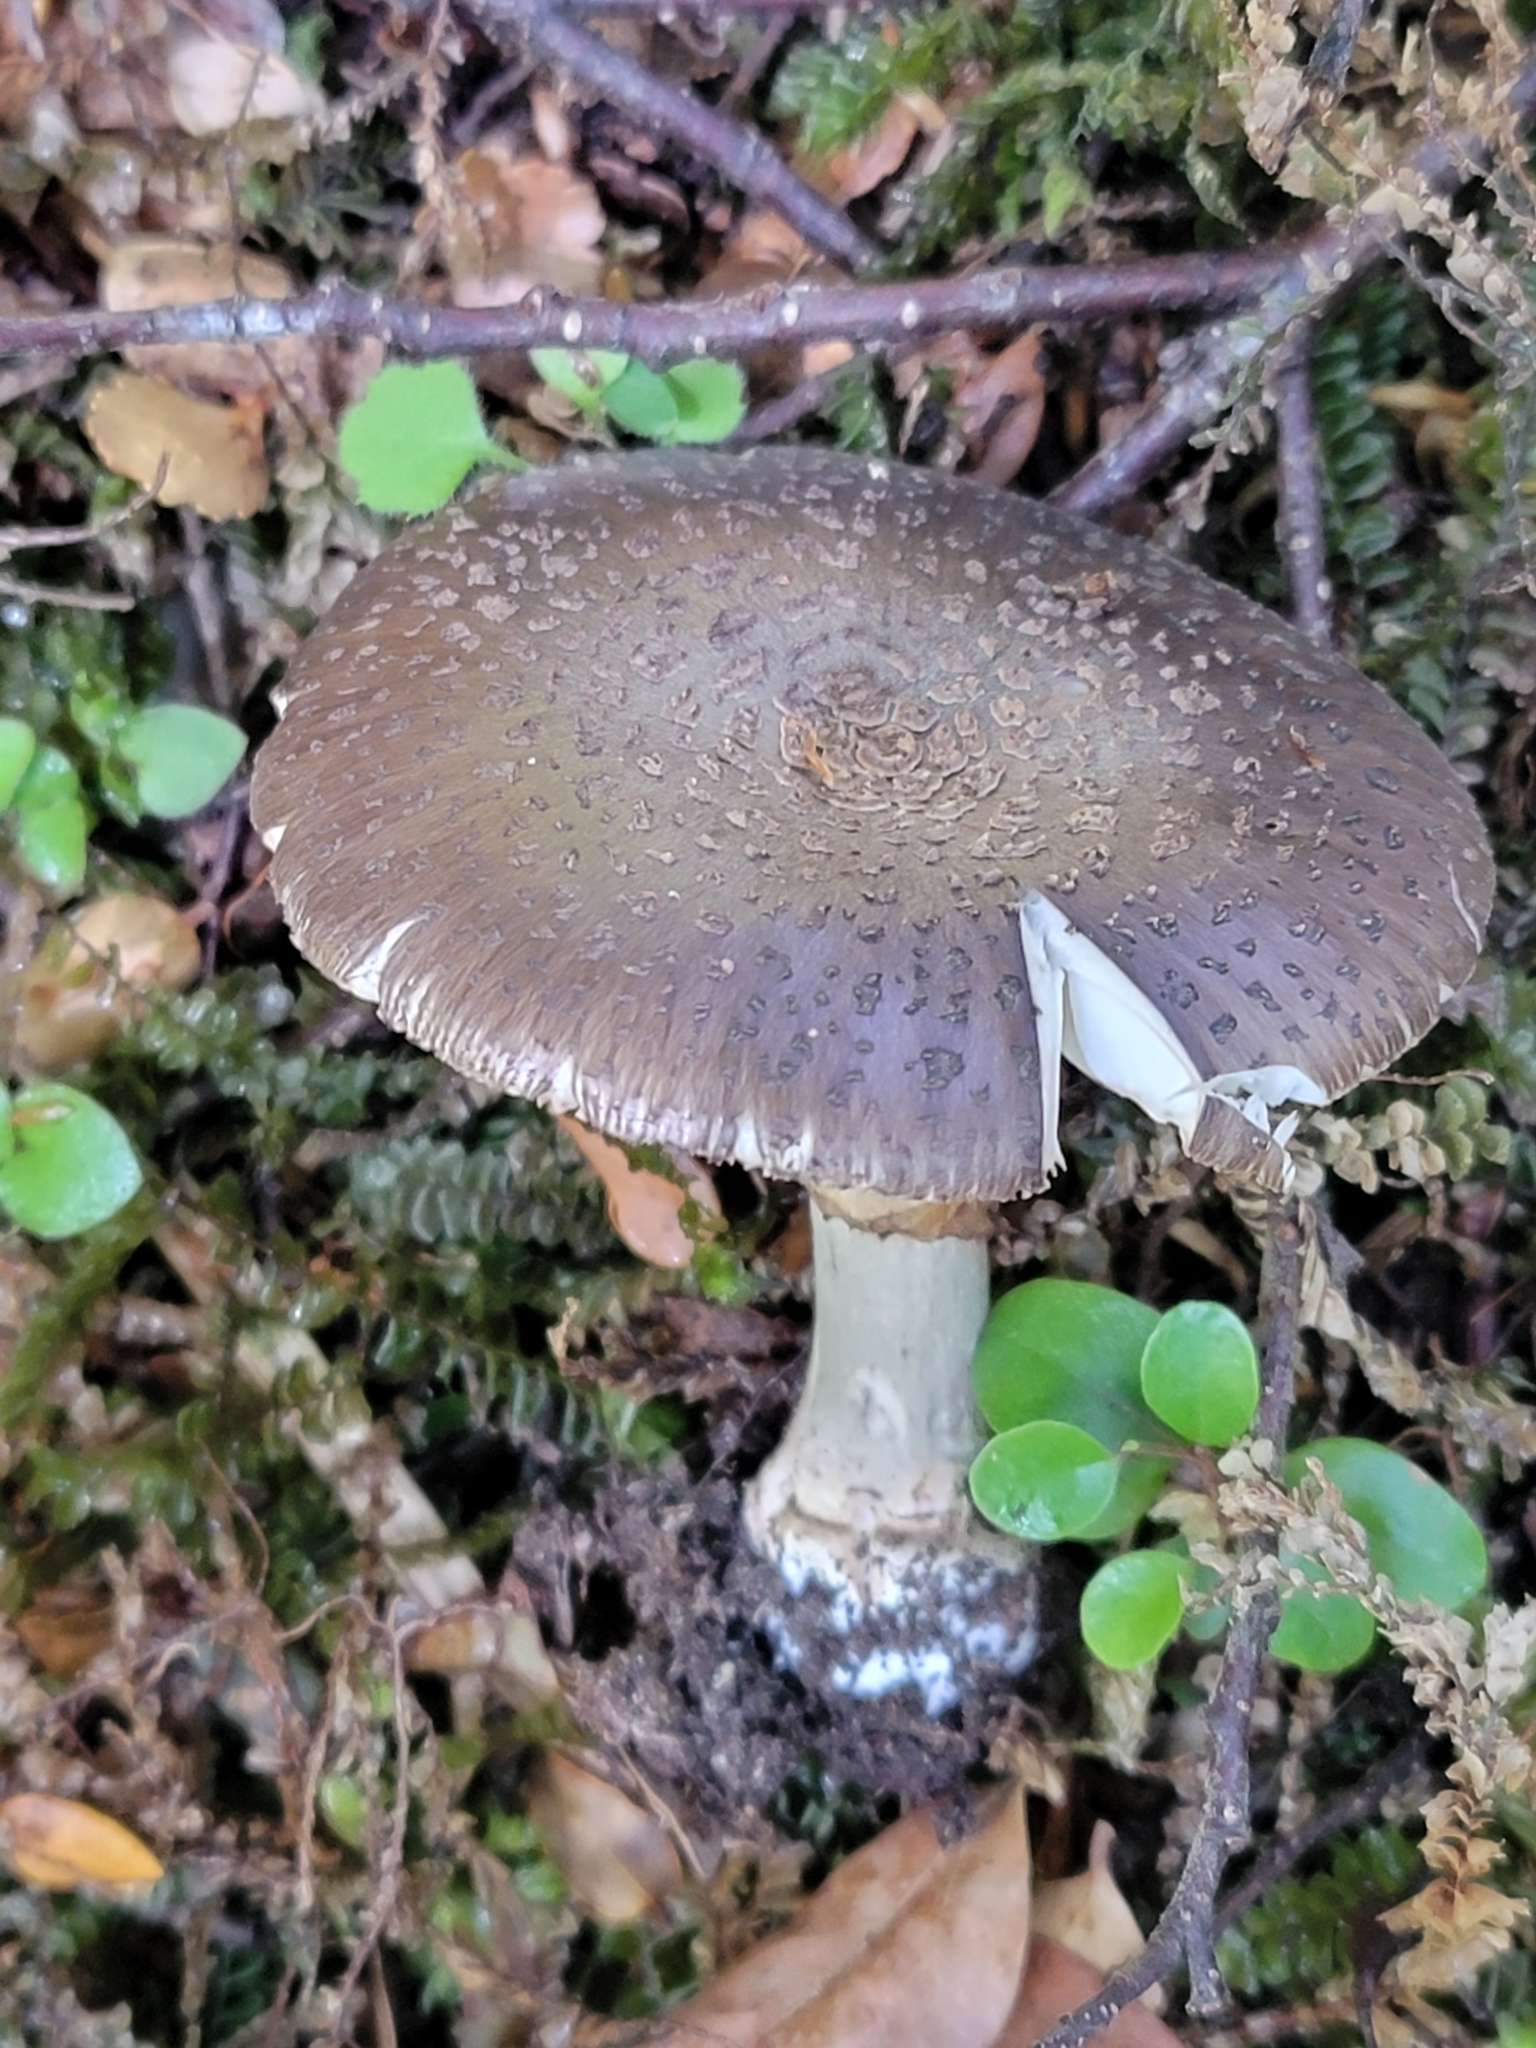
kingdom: Fungi
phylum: Basidiomycota
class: Agaricomycetes
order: Agaricales
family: Amanitaceae
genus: Amanita
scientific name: Amanita nothofagi
